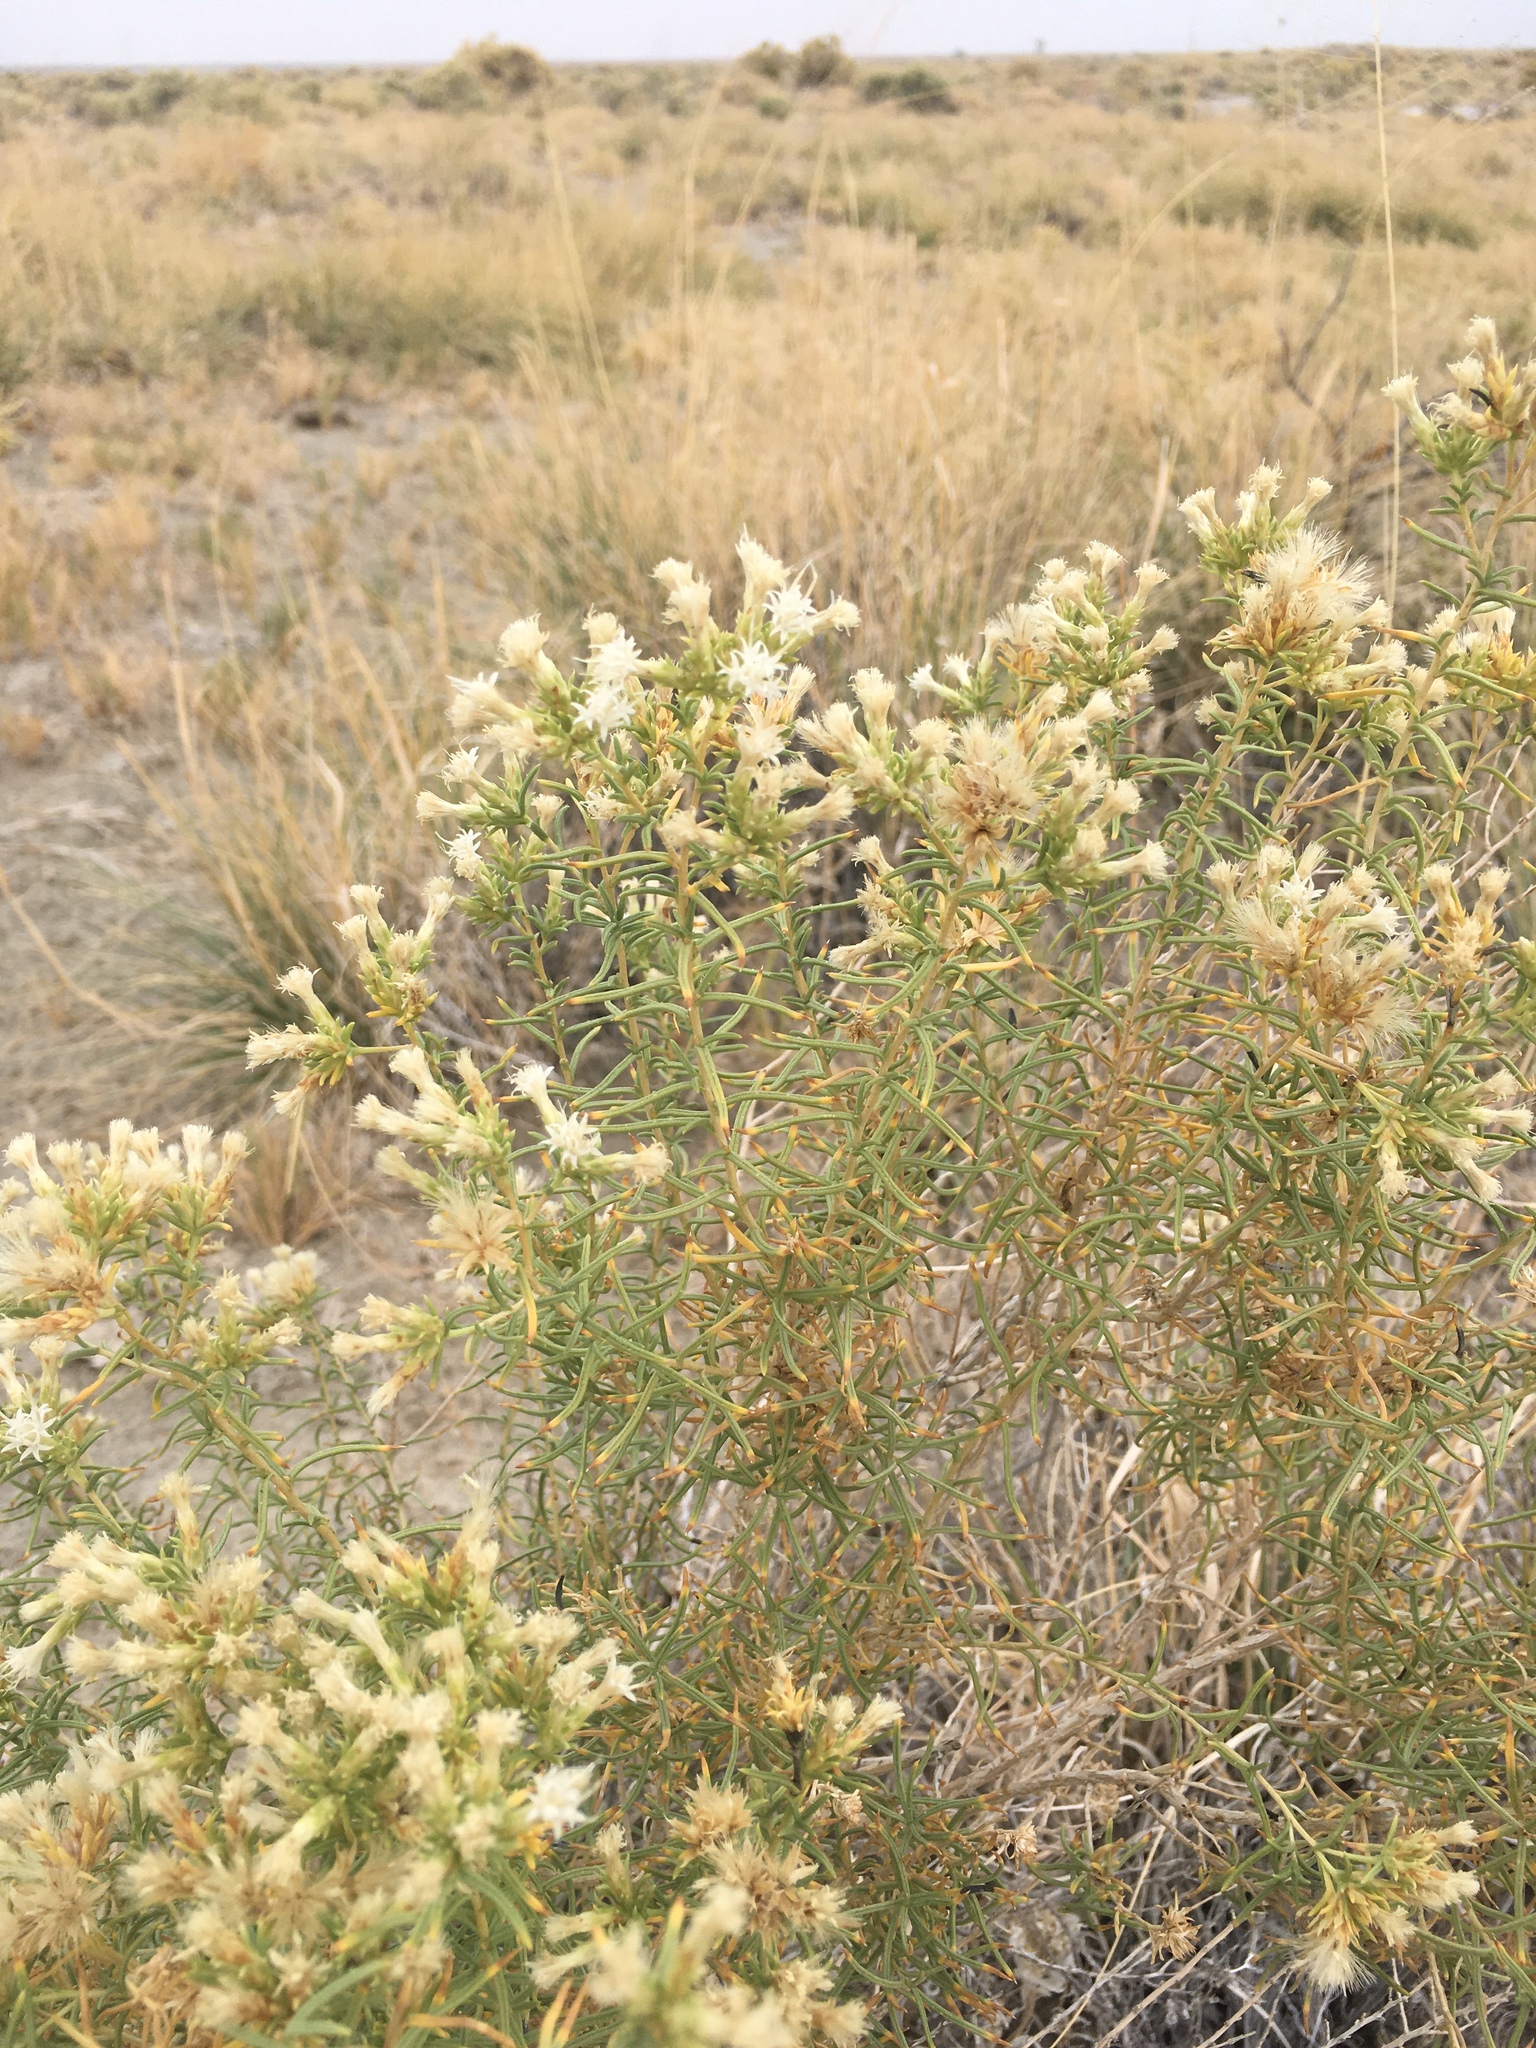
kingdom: Plantae
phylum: Tracheophyta
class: Magnoliopsida
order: Asterales
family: Asteraceae
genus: Ericameria
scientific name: Ericameria albida
